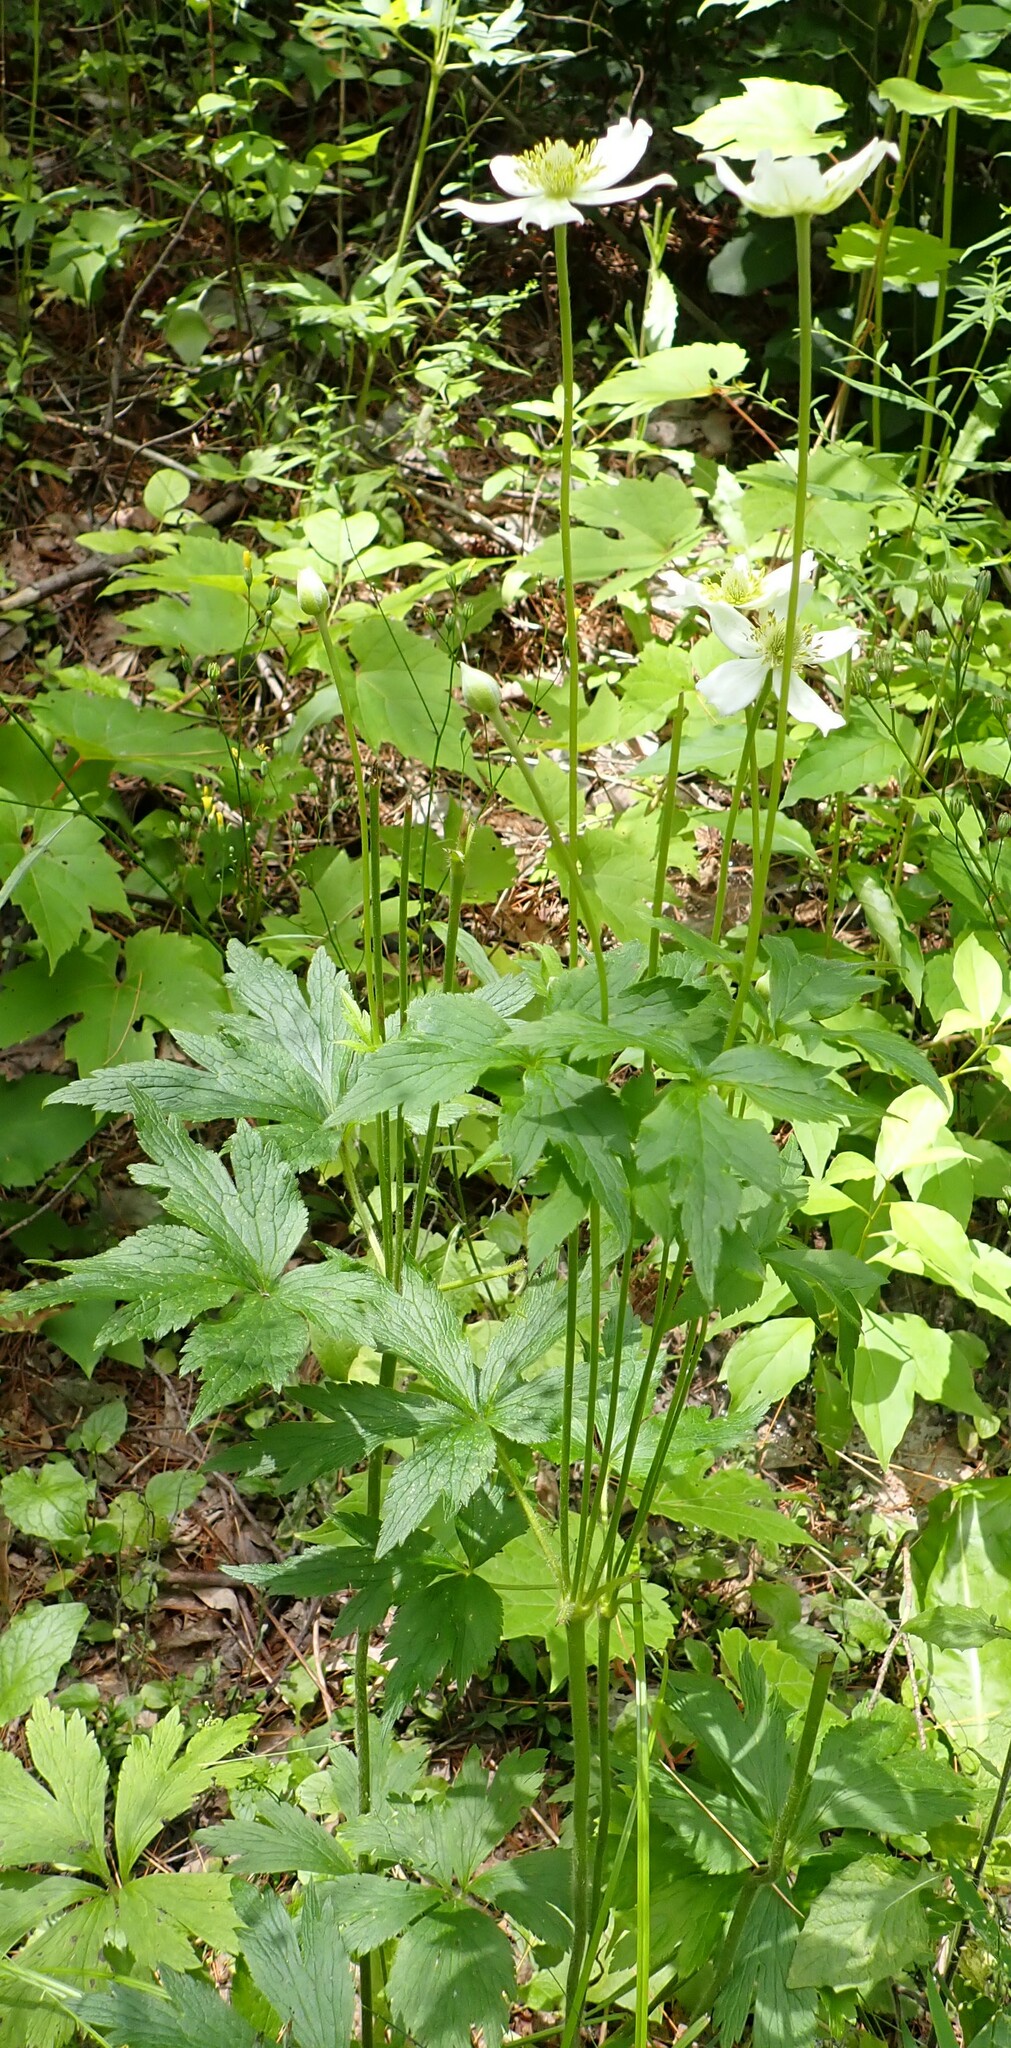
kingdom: Plantae
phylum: Tracheophyta
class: Magnoliopsida
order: Ranunculales
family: Ranunculaceae
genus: Anemone
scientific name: Anemone virginiana
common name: Tall anemone
